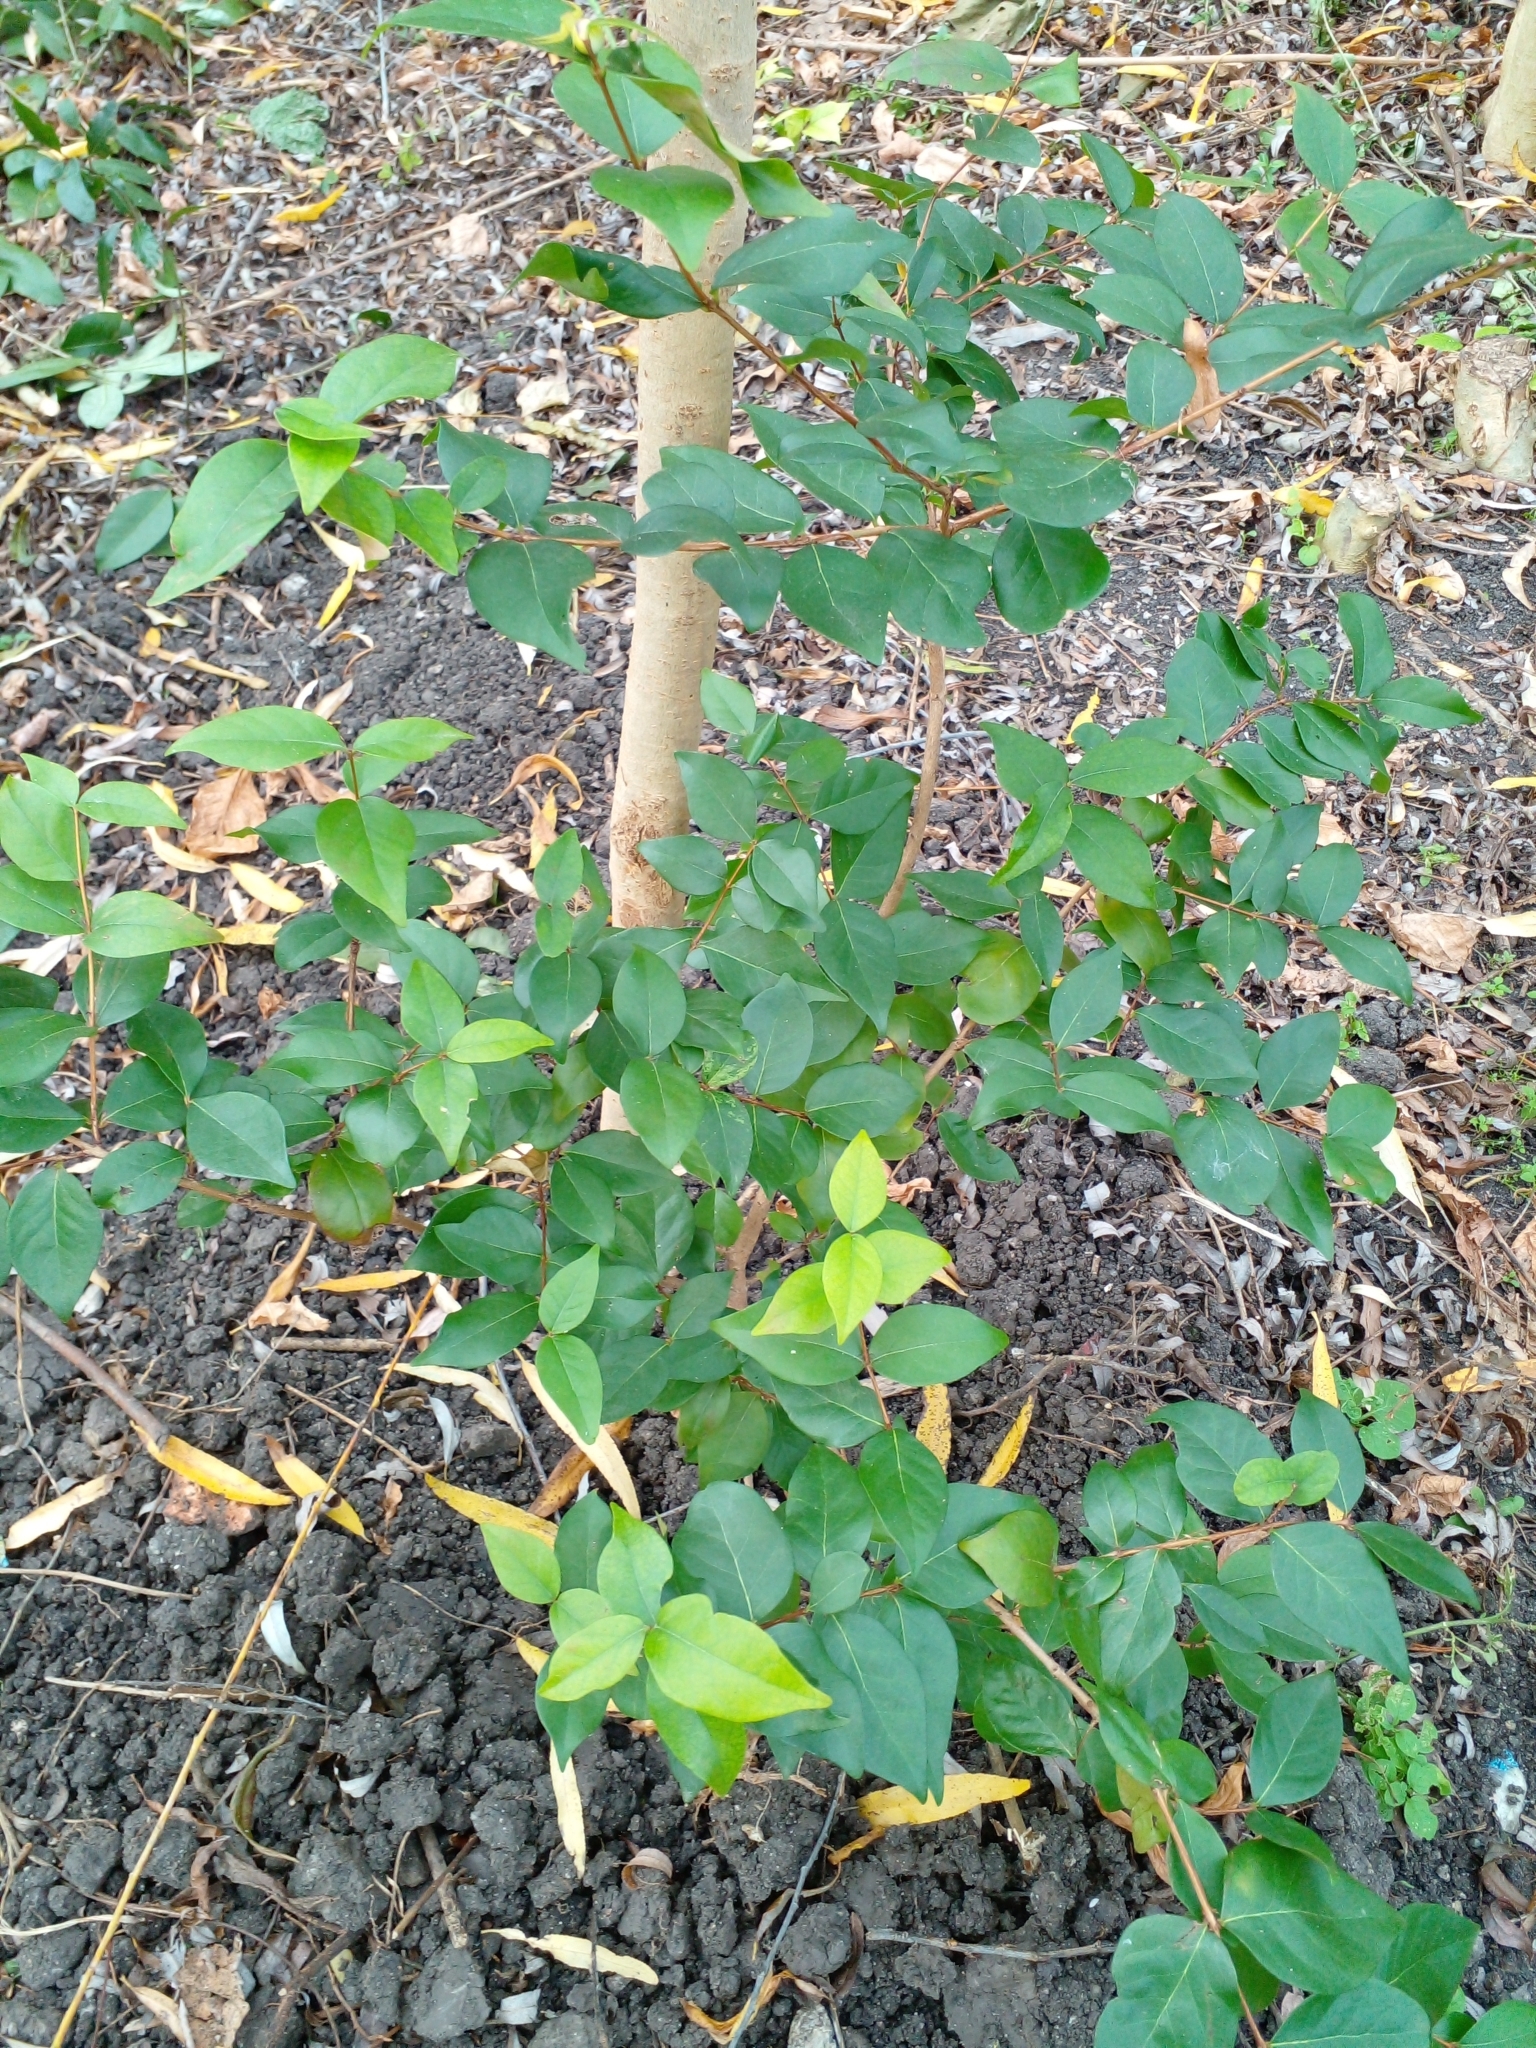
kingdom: Plantae
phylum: Tracheophyta
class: Magnoliopsida
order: Myrtales
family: Myrtaceae
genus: Eugenia
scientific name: Eugenia uniflora
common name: Surinam cherry
